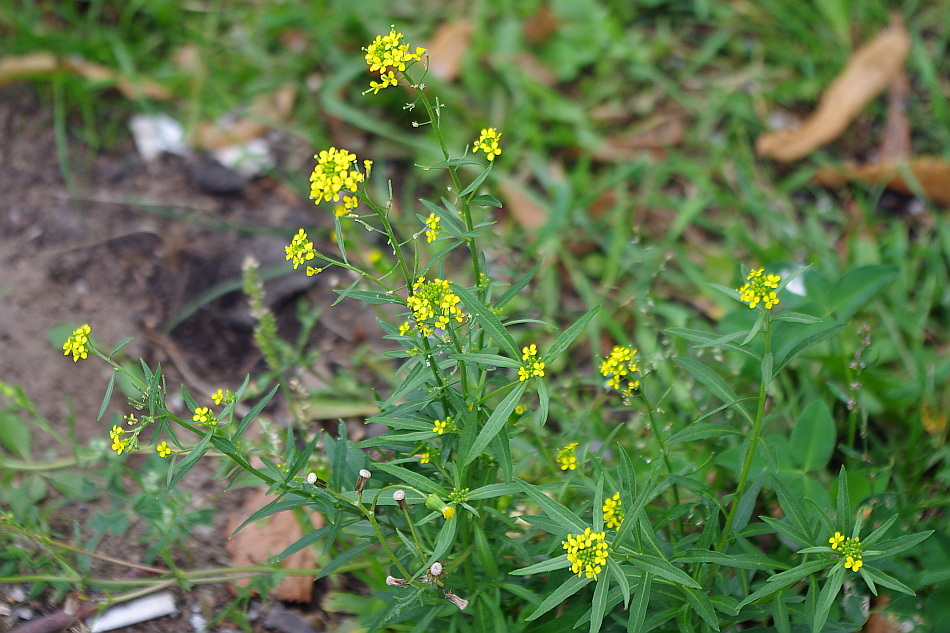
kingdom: Plantae
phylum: Tracheophyta
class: Magnoliopsida
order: Brassicales
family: Brassicaceae
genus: Erysimum
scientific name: Erysimum cheiranthoides
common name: Treacle mustard
